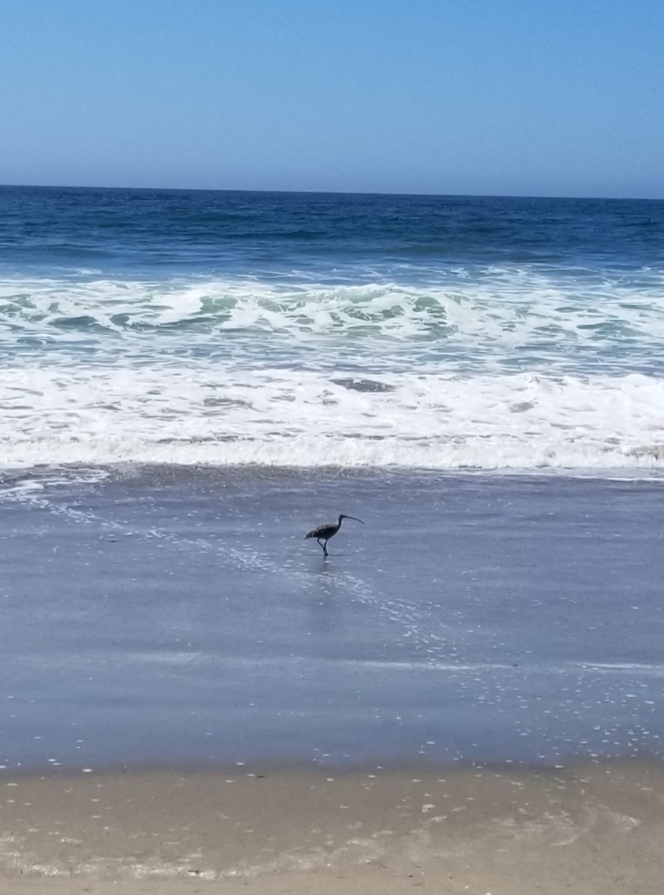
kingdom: Animalia
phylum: Chordata
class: Aves
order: Charadriiformes
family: Scolopacidae
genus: Numenius
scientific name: Numenius americanus
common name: Long-billed curlew
